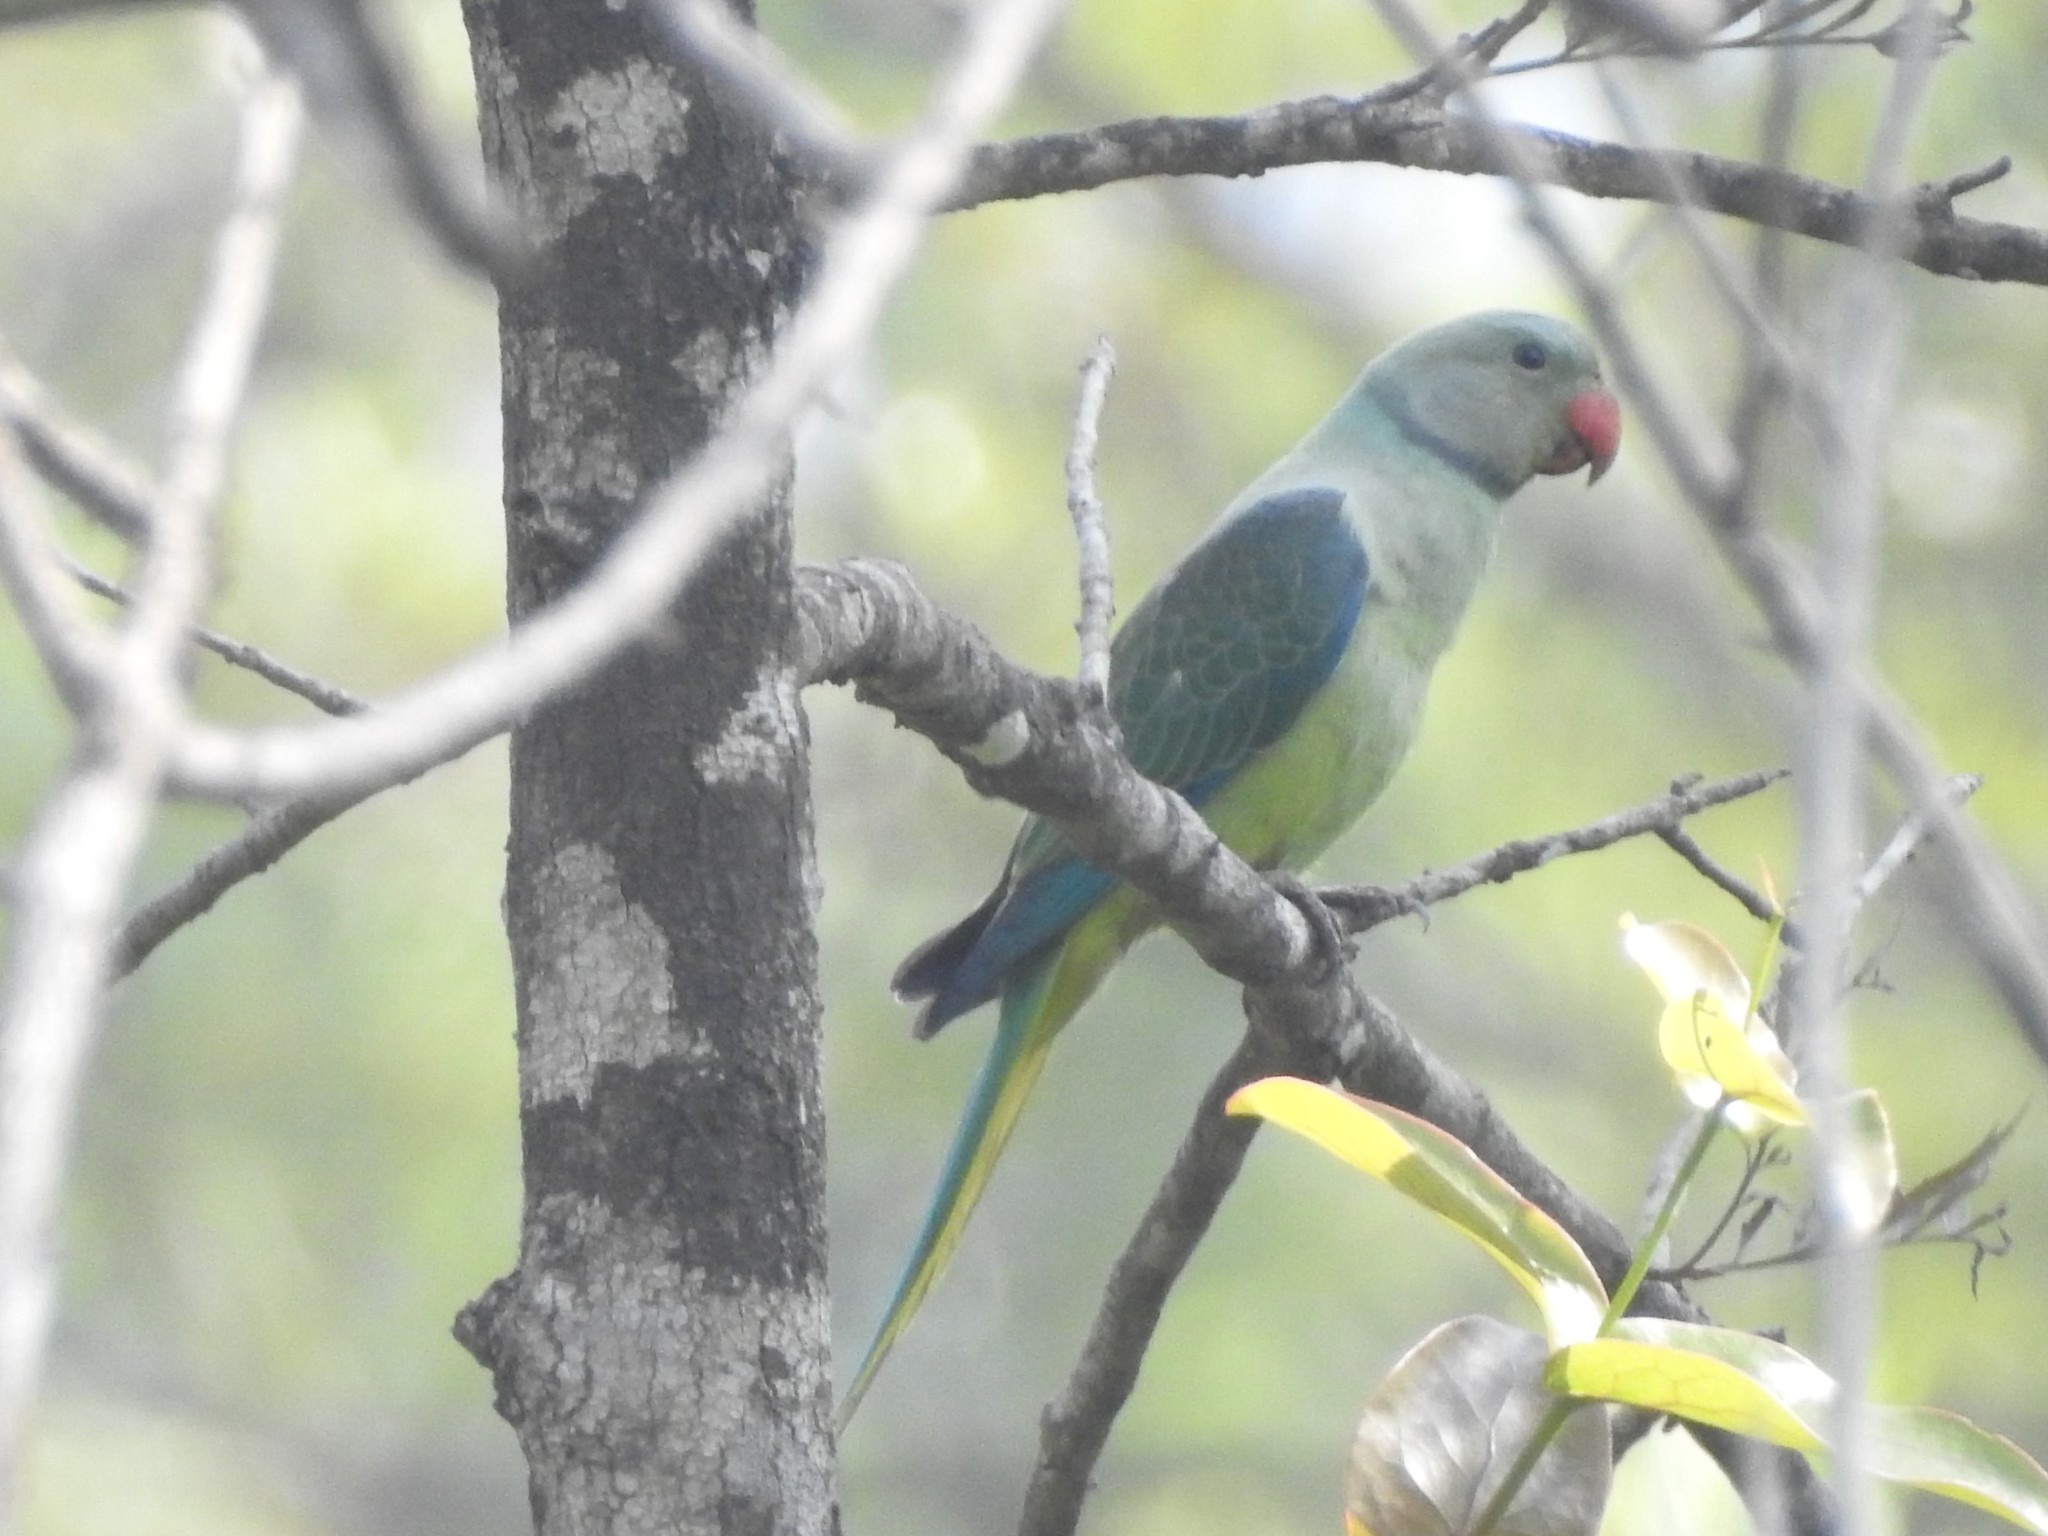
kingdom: Animalia
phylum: Chordata
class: Aves
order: Psittaciformes
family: Psittacidae
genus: Psittacula
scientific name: Psittacula columboides
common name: Blue-winged parakeet
